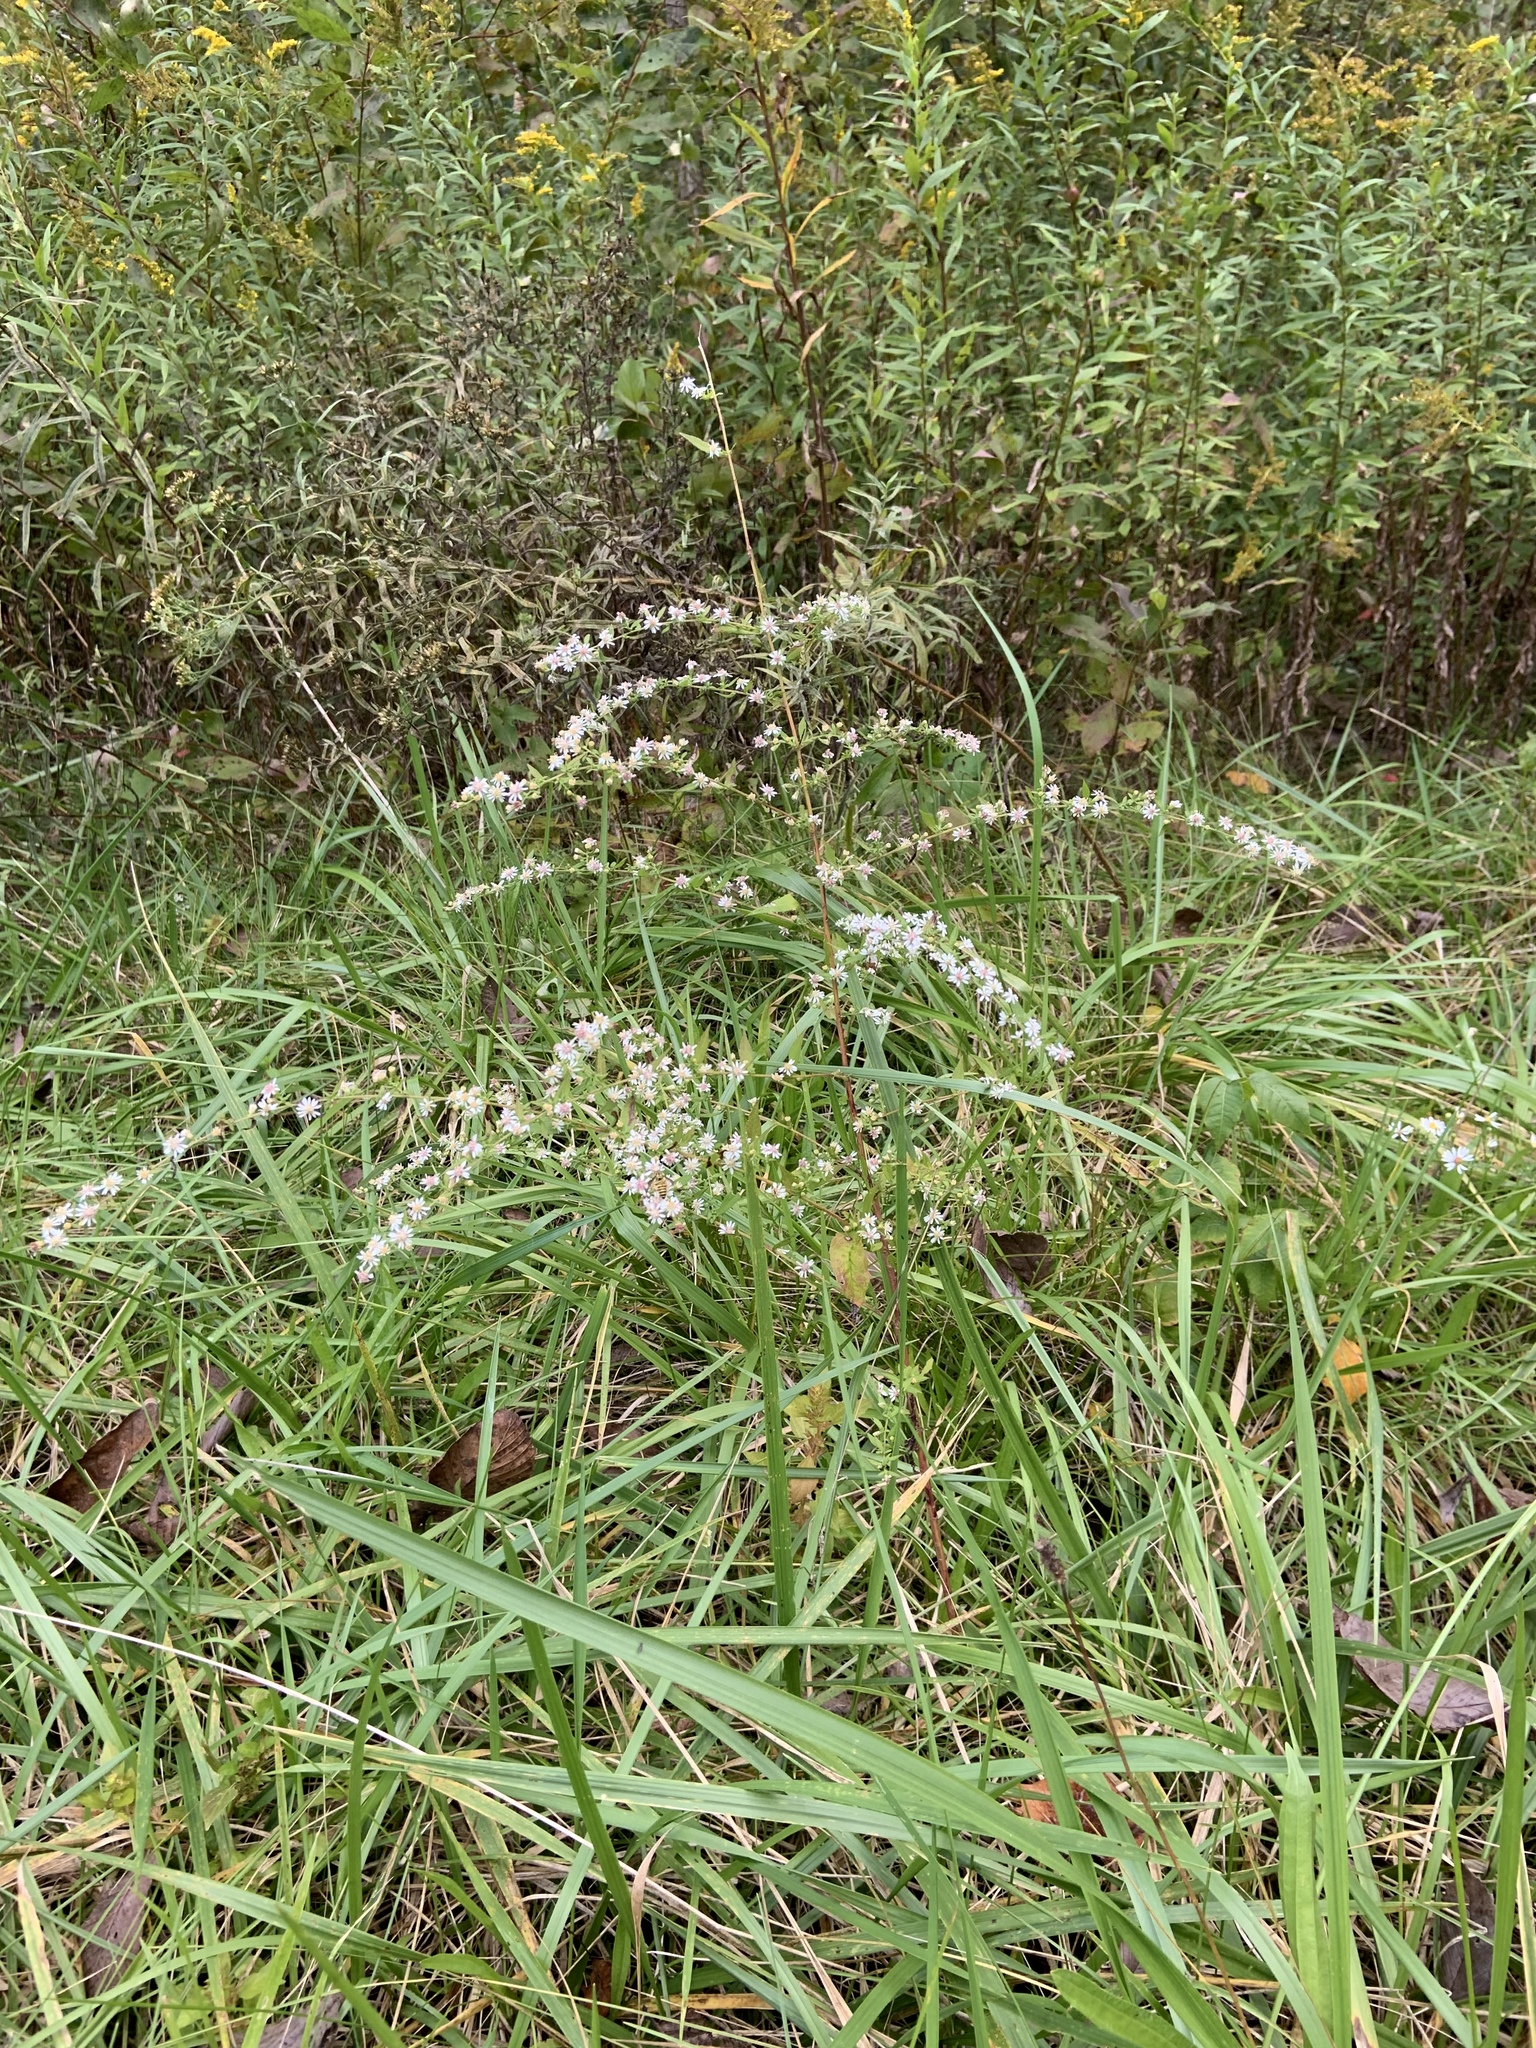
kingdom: Plantae
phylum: Tracheophyta
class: Magnoliopsida
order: Asterales
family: Asteraceae
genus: Symphyotrichum
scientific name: Symphyotrichum lateriflorum
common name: Calico aster
